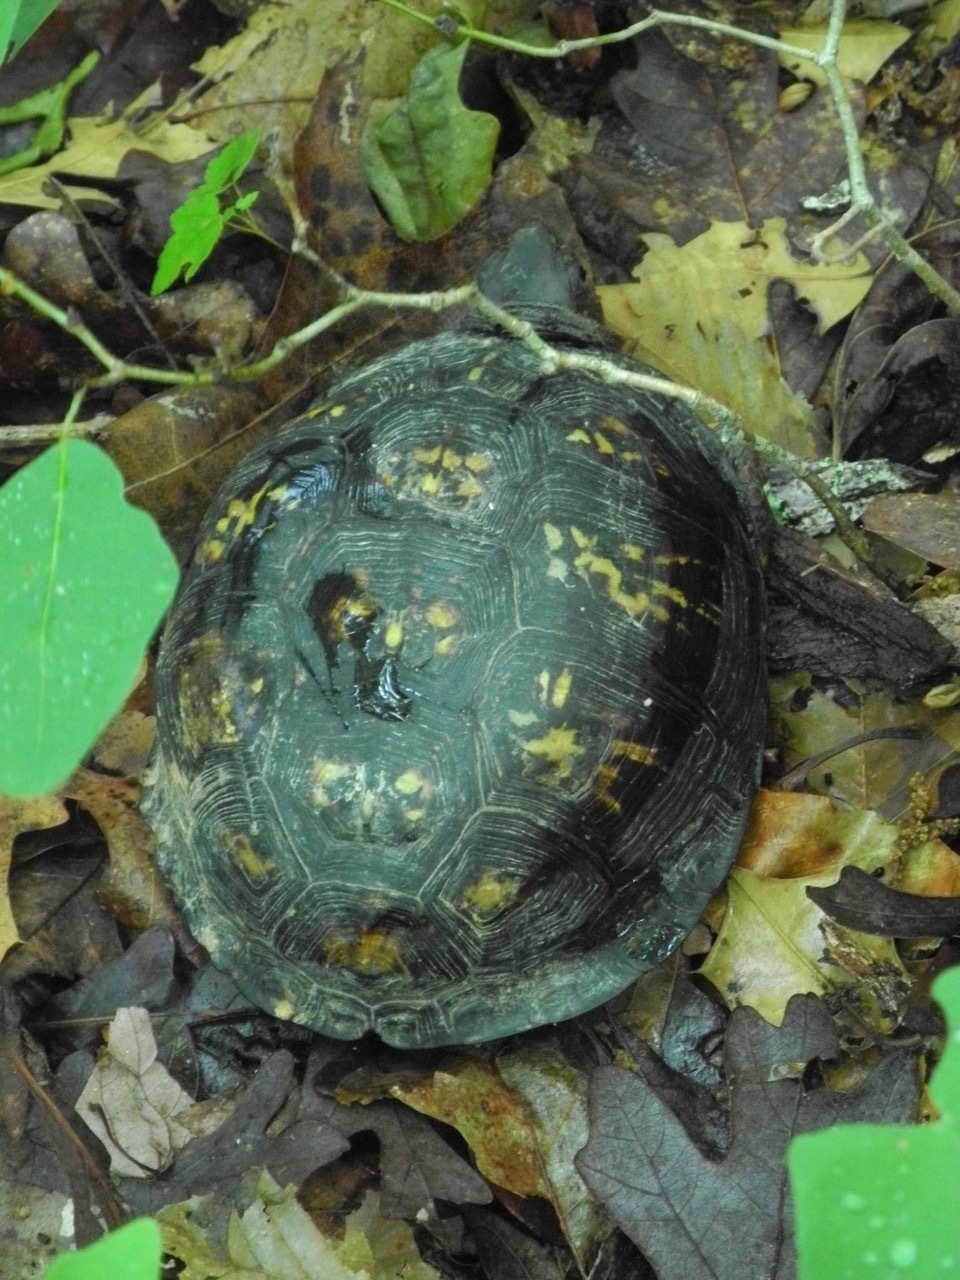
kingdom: Animalia
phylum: Chordata
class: Testudines
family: Emydidae
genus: Terrapene
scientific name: Terrapene carolina
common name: Common box turtle
